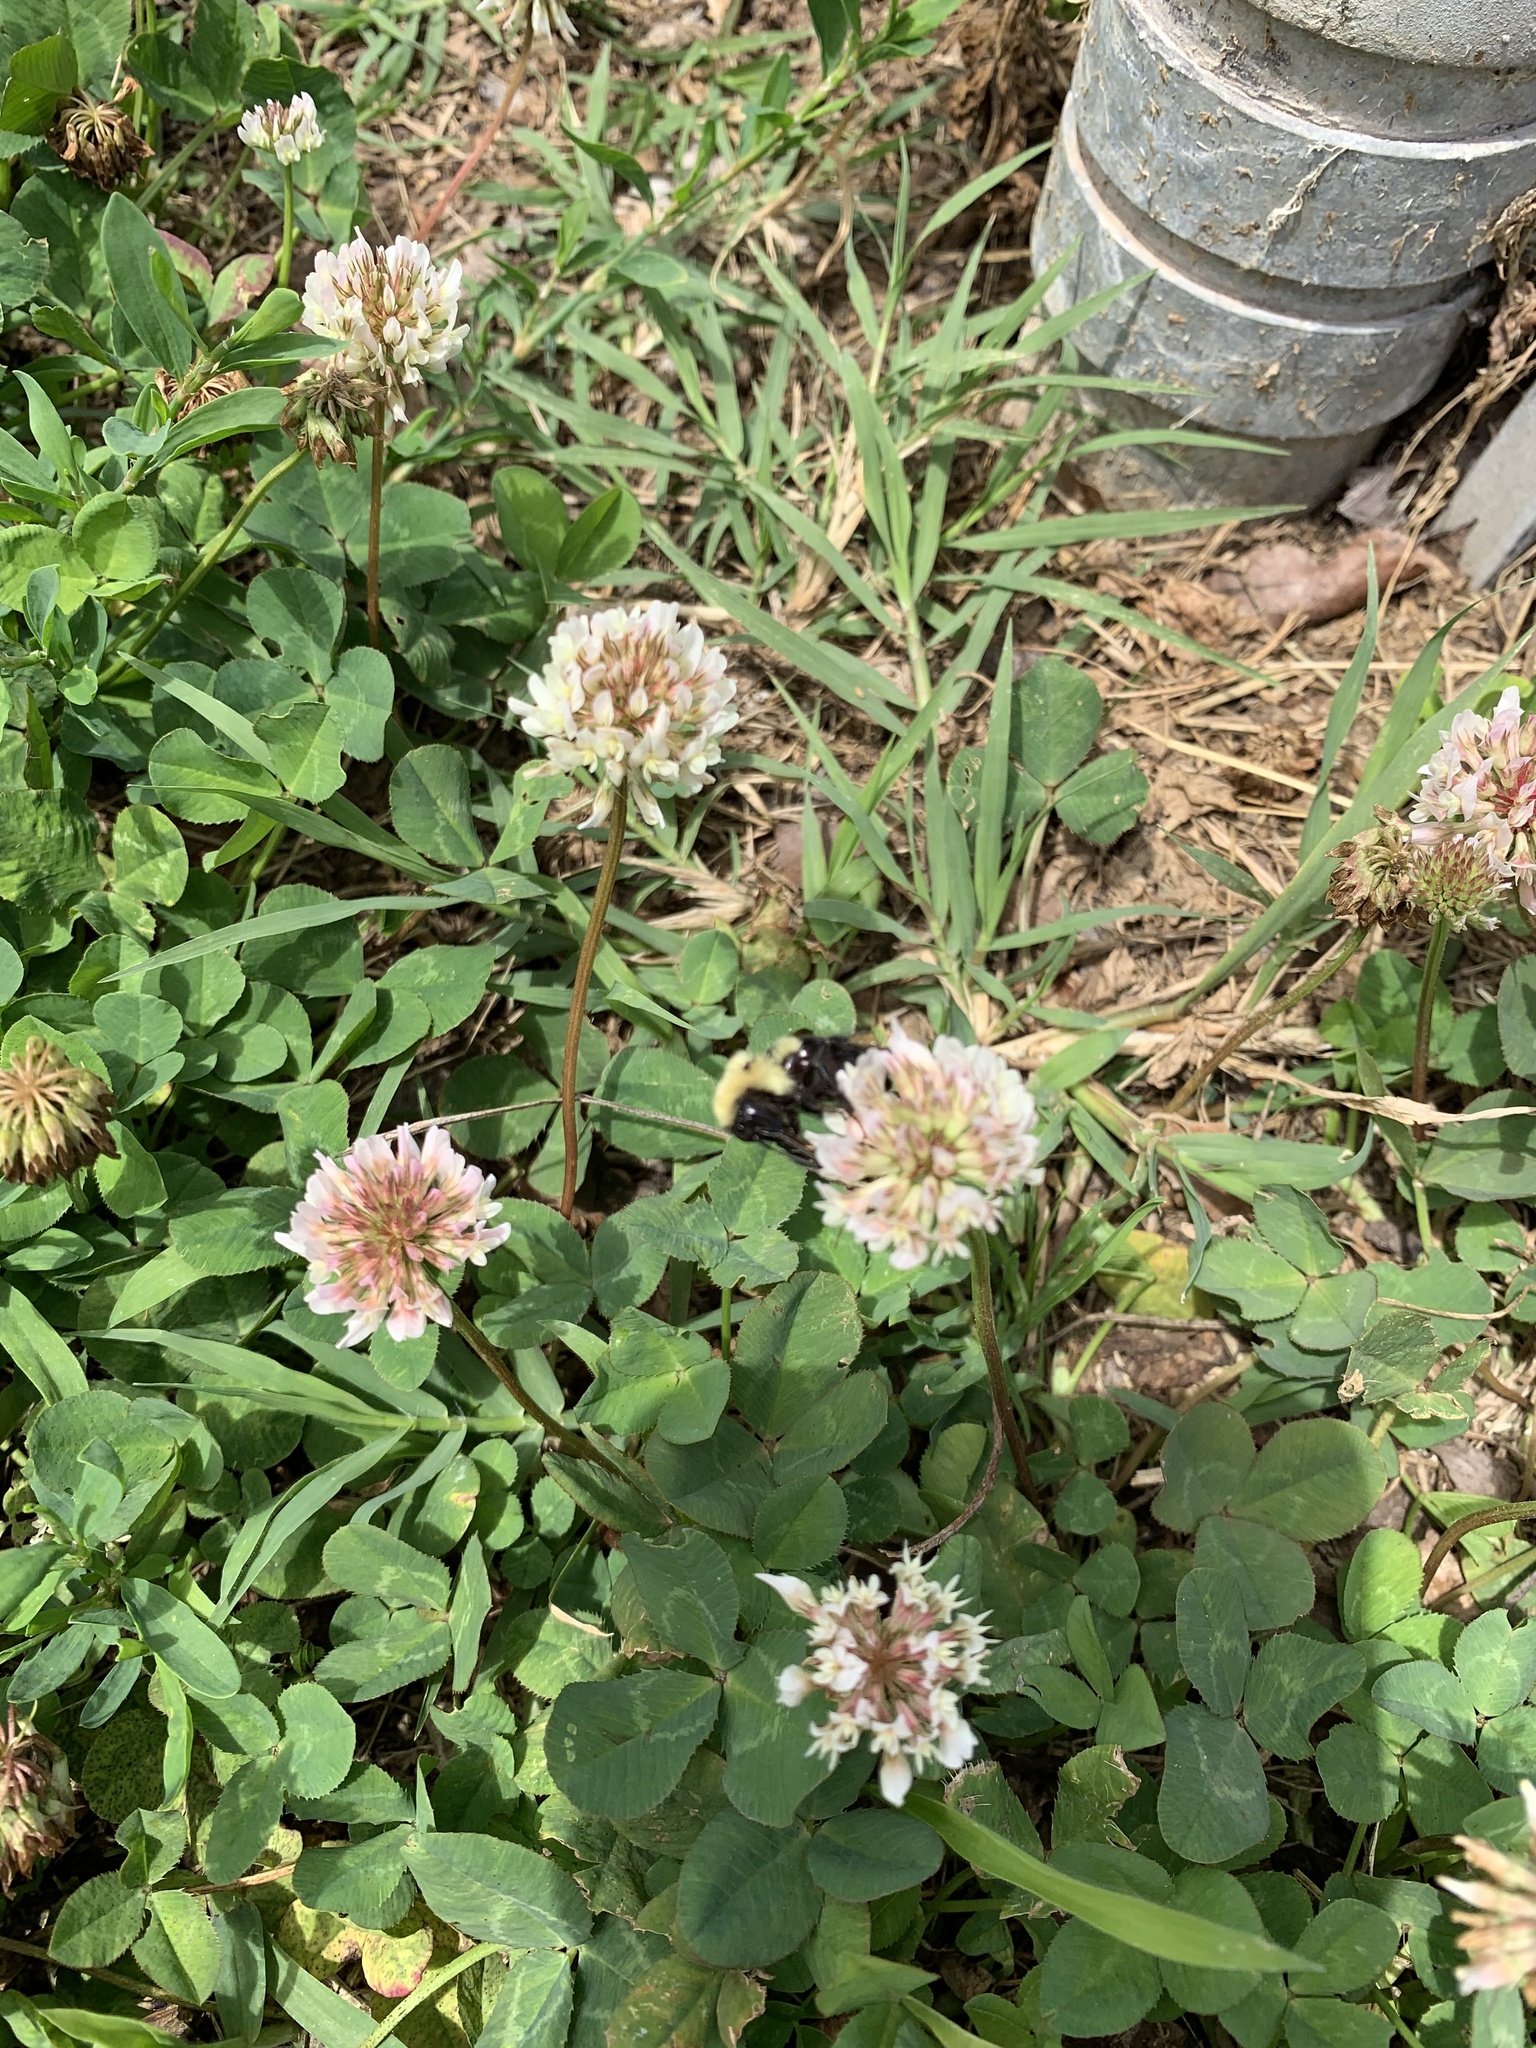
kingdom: Animalia
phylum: Arthropoda
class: Insecta
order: Hymenoptera
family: Apidae
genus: Bombus
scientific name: Bombus bimaculatus
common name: Two-spotted bumble bee
